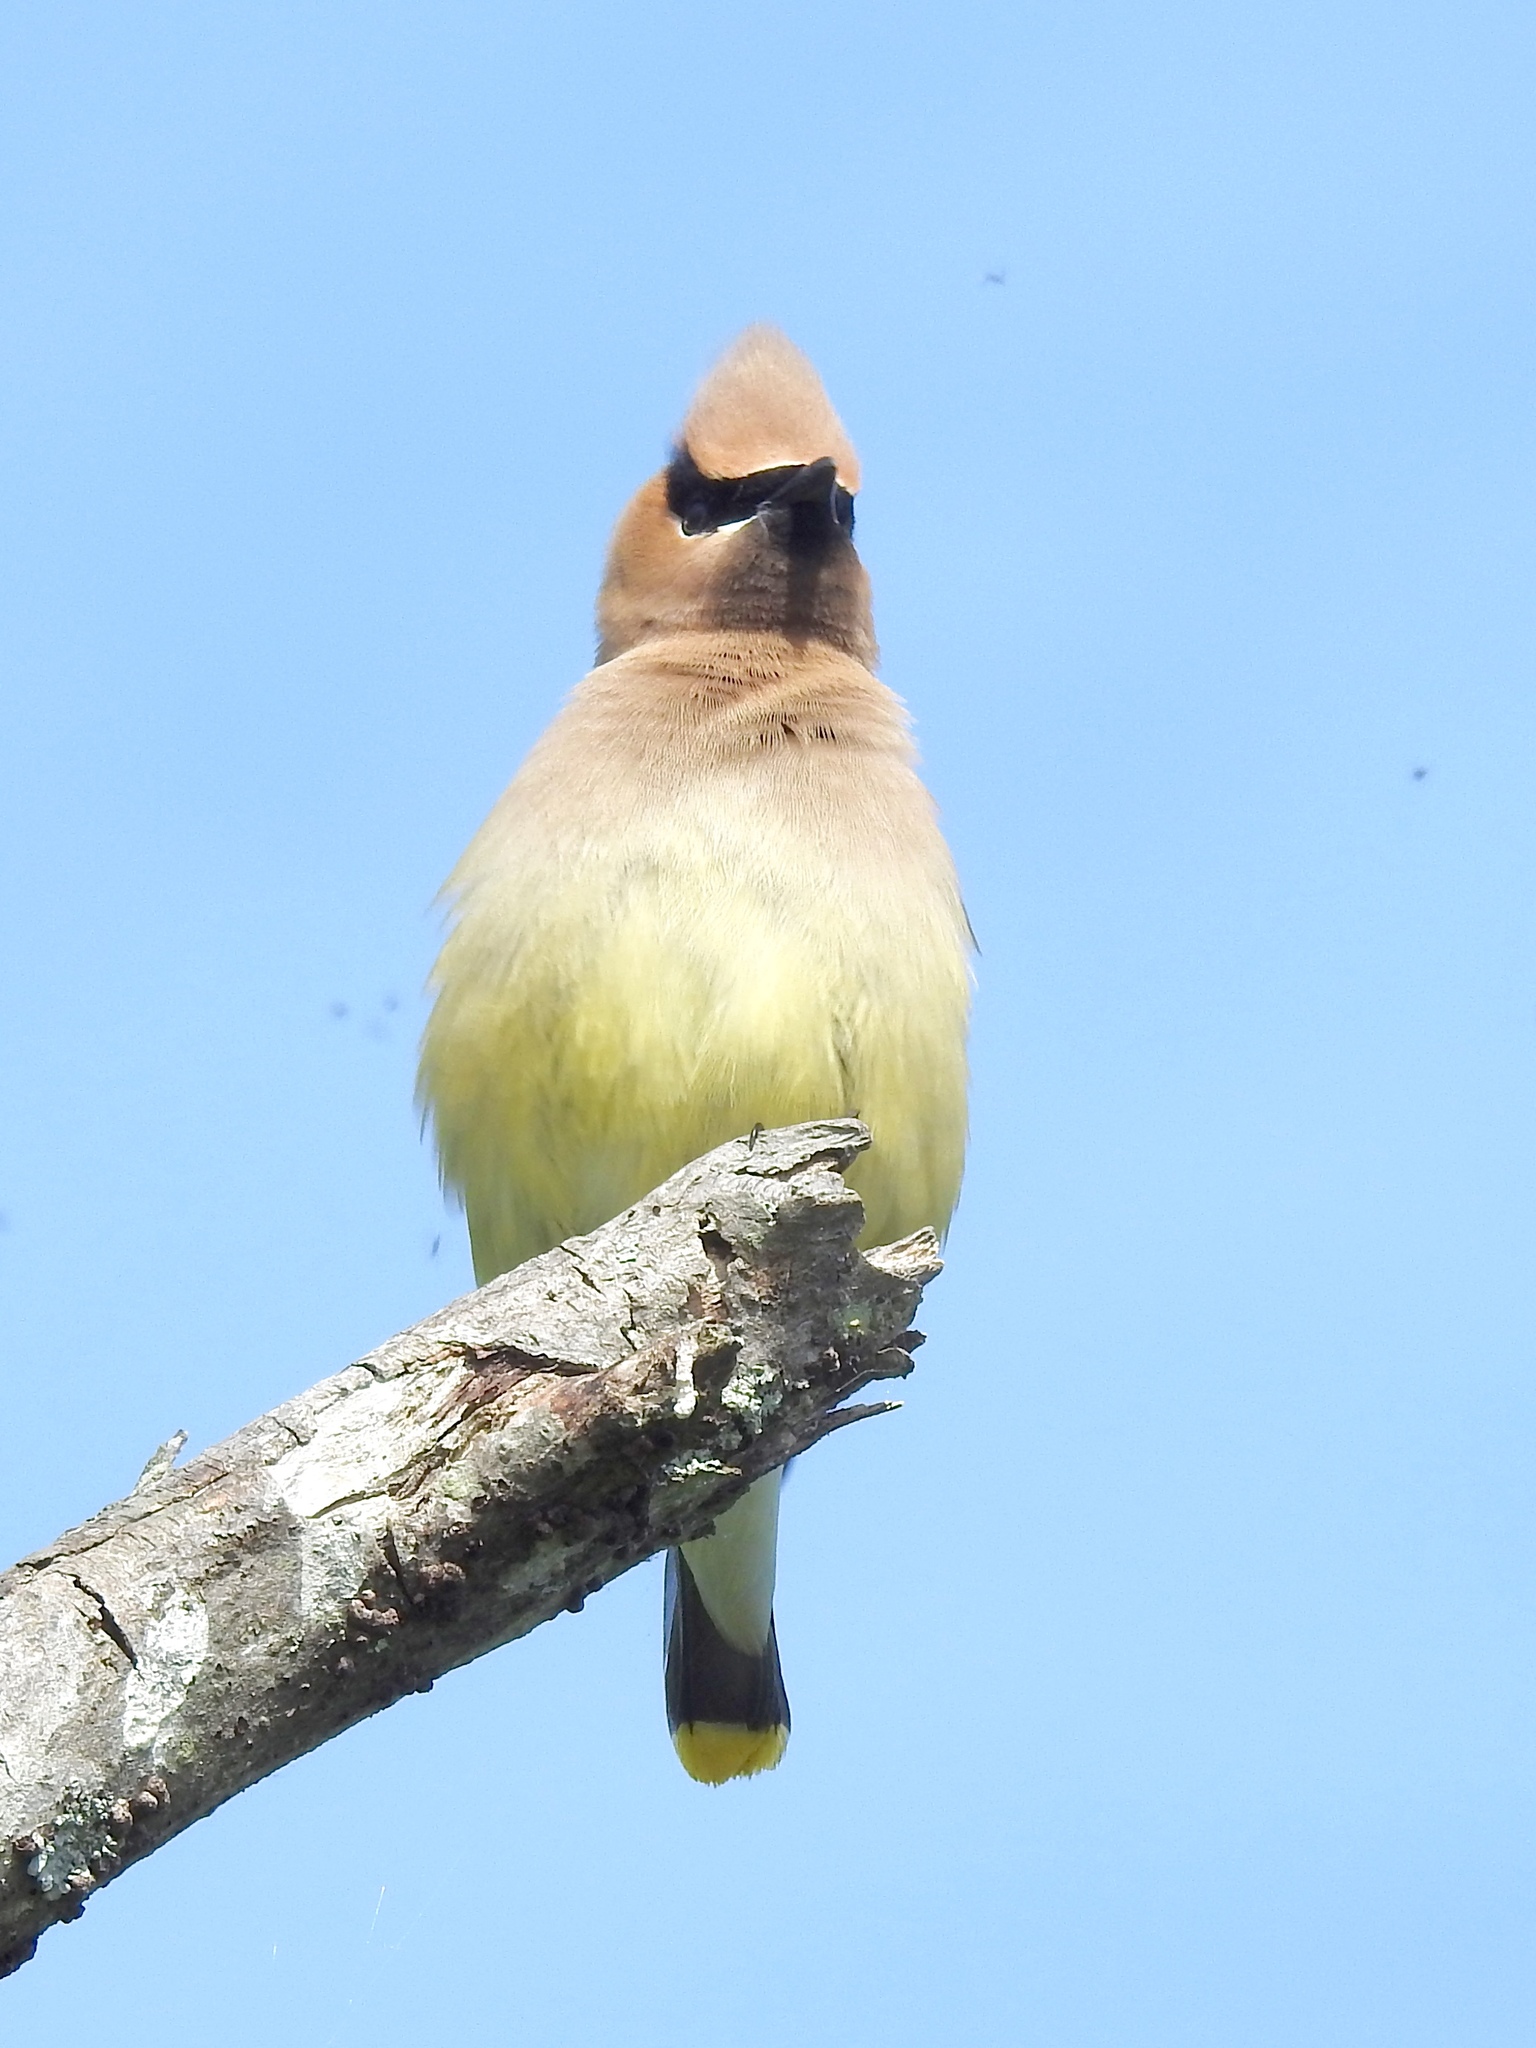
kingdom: Animalia
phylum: Chordata
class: Aves
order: Passeriformes
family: Bombycillidae
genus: Bombycilla
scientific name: Bombycilla cedrorum
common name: Cedar waxwing
